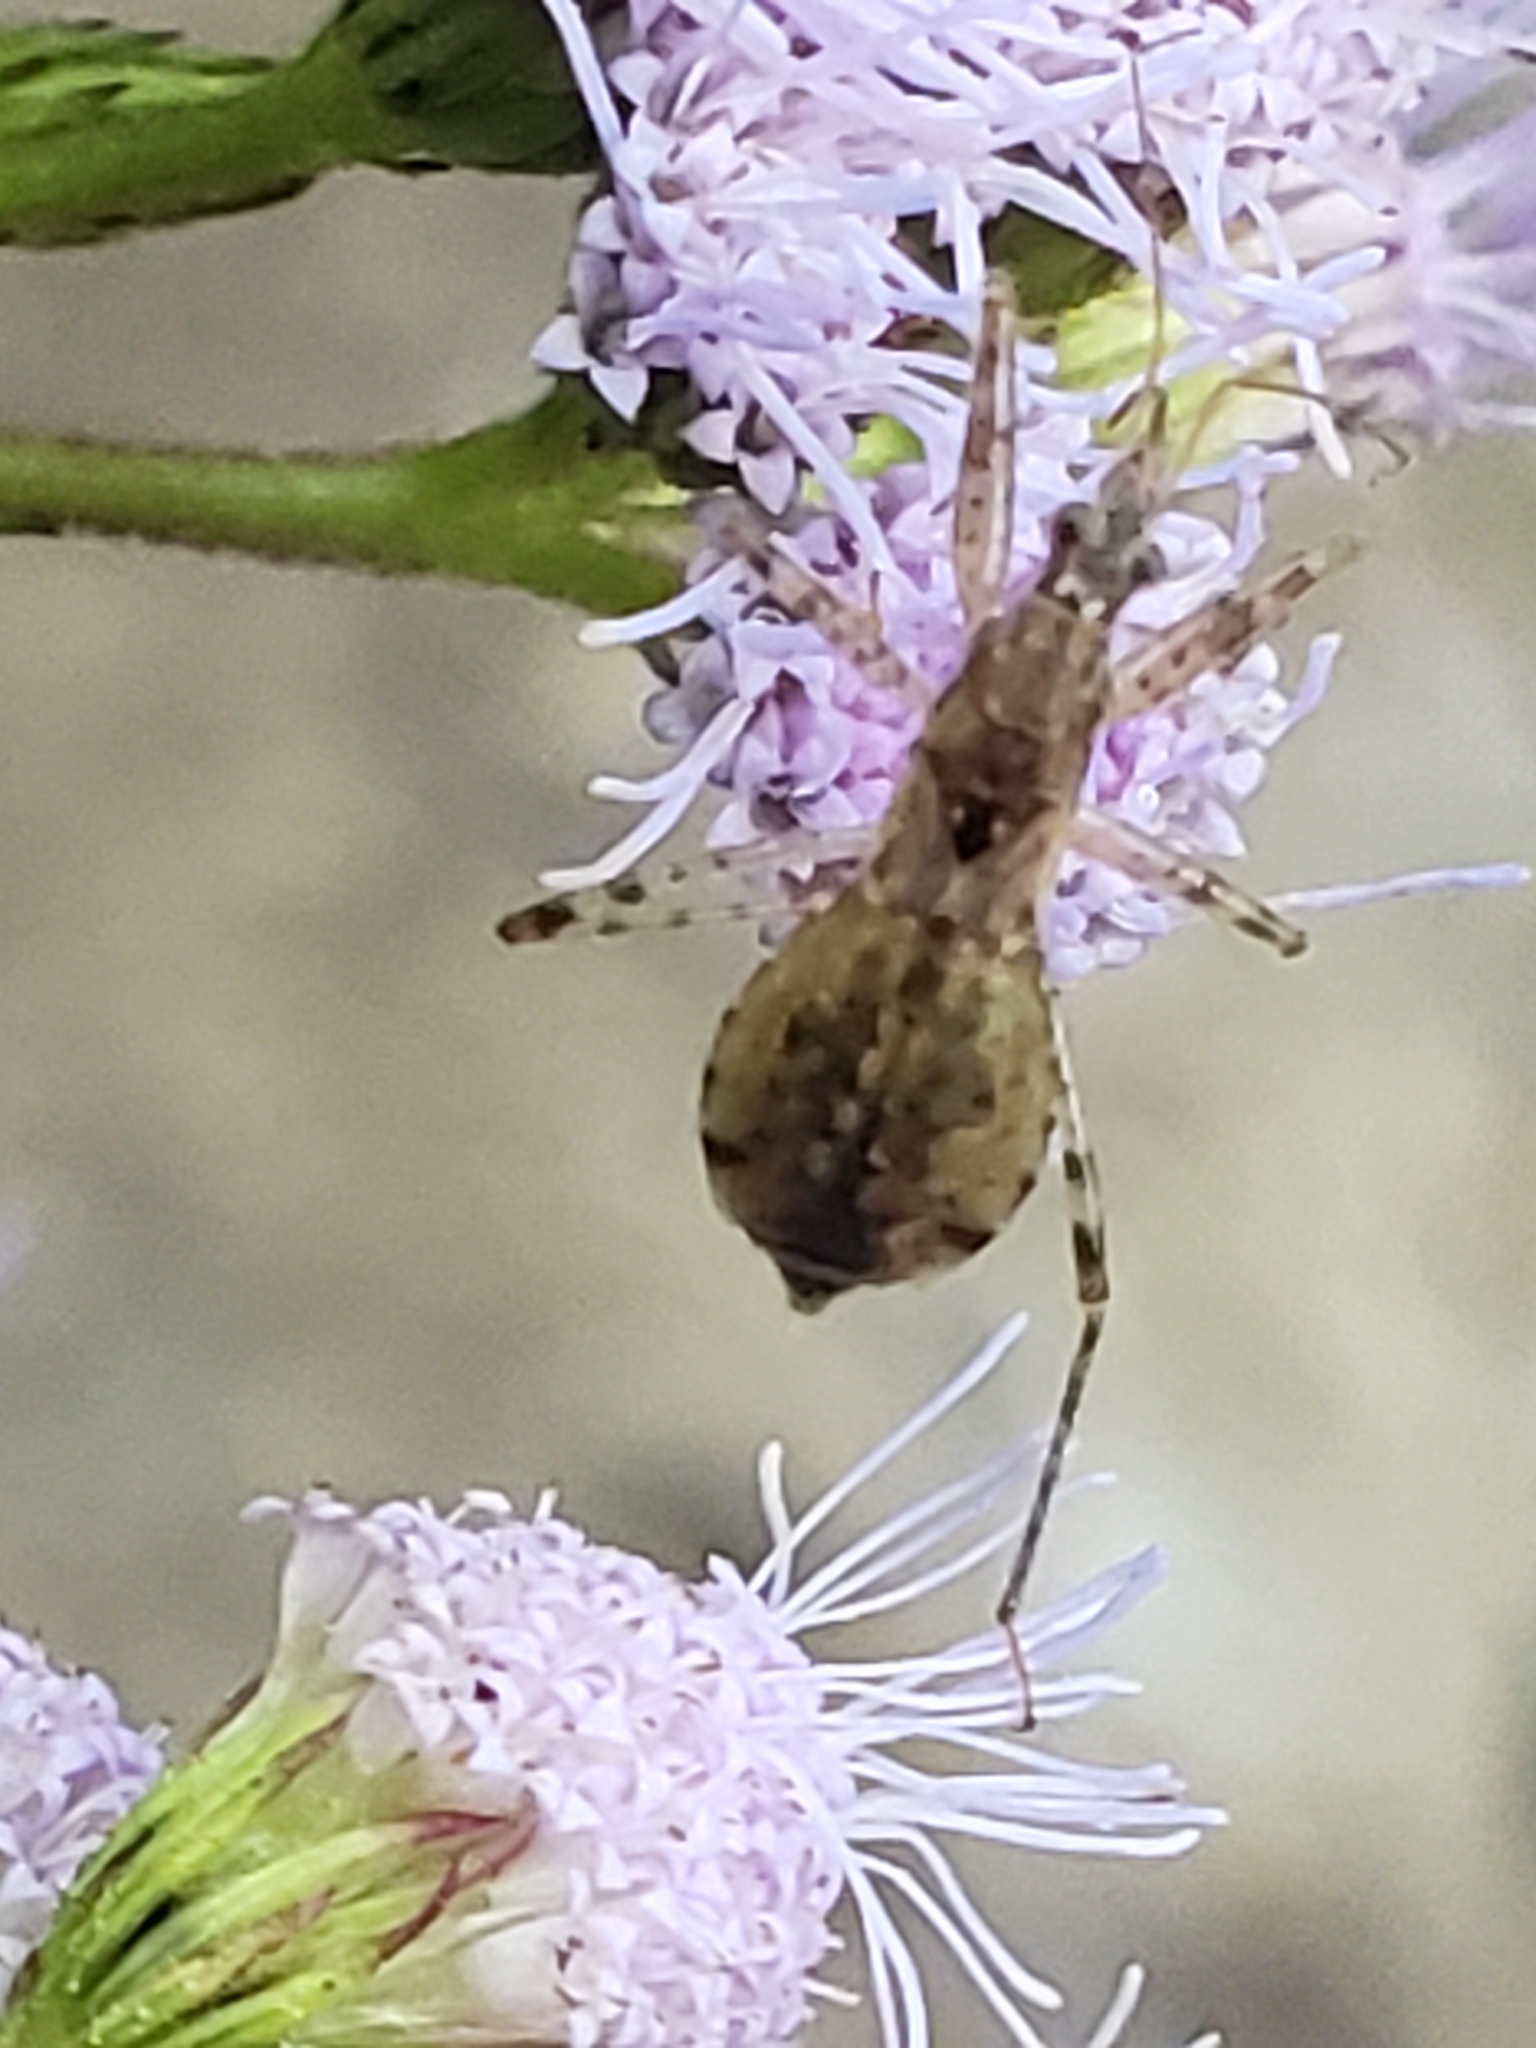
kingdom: Animalia
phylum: Arthropoda
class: Insecta
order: Hemiptera
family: Nabidae
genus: Hoplistoscelis
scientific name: Hoplistoscelis pallescens
